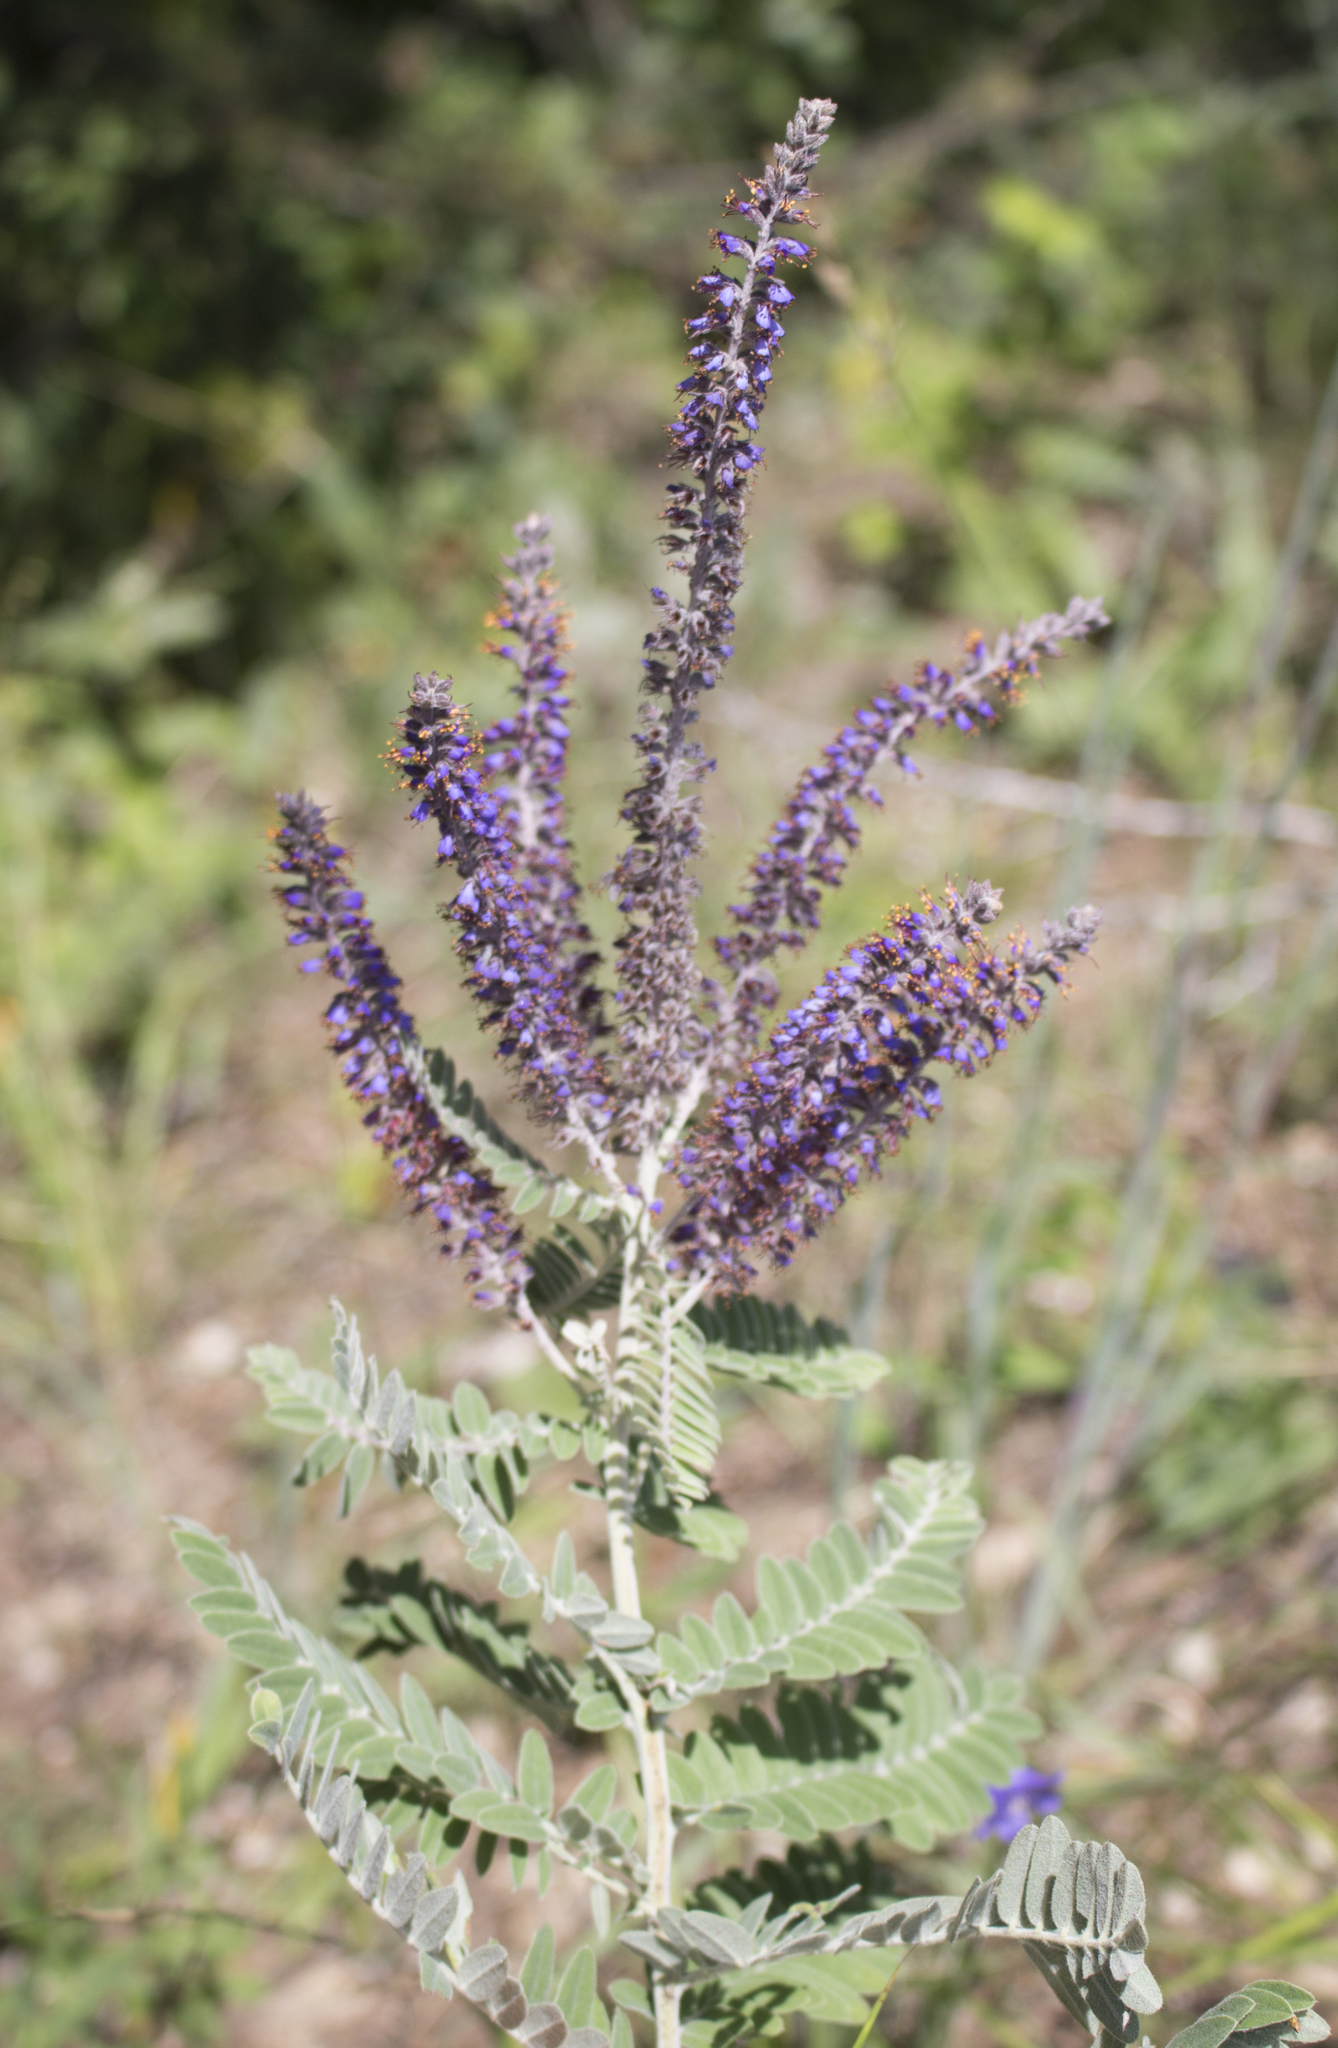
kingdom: Plantae
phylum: Tracheophyta
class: Magnoliopsida
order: Fabales
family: Fabaceae
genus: Amorpha
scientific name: Amorpha canescens
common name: Leadplant
